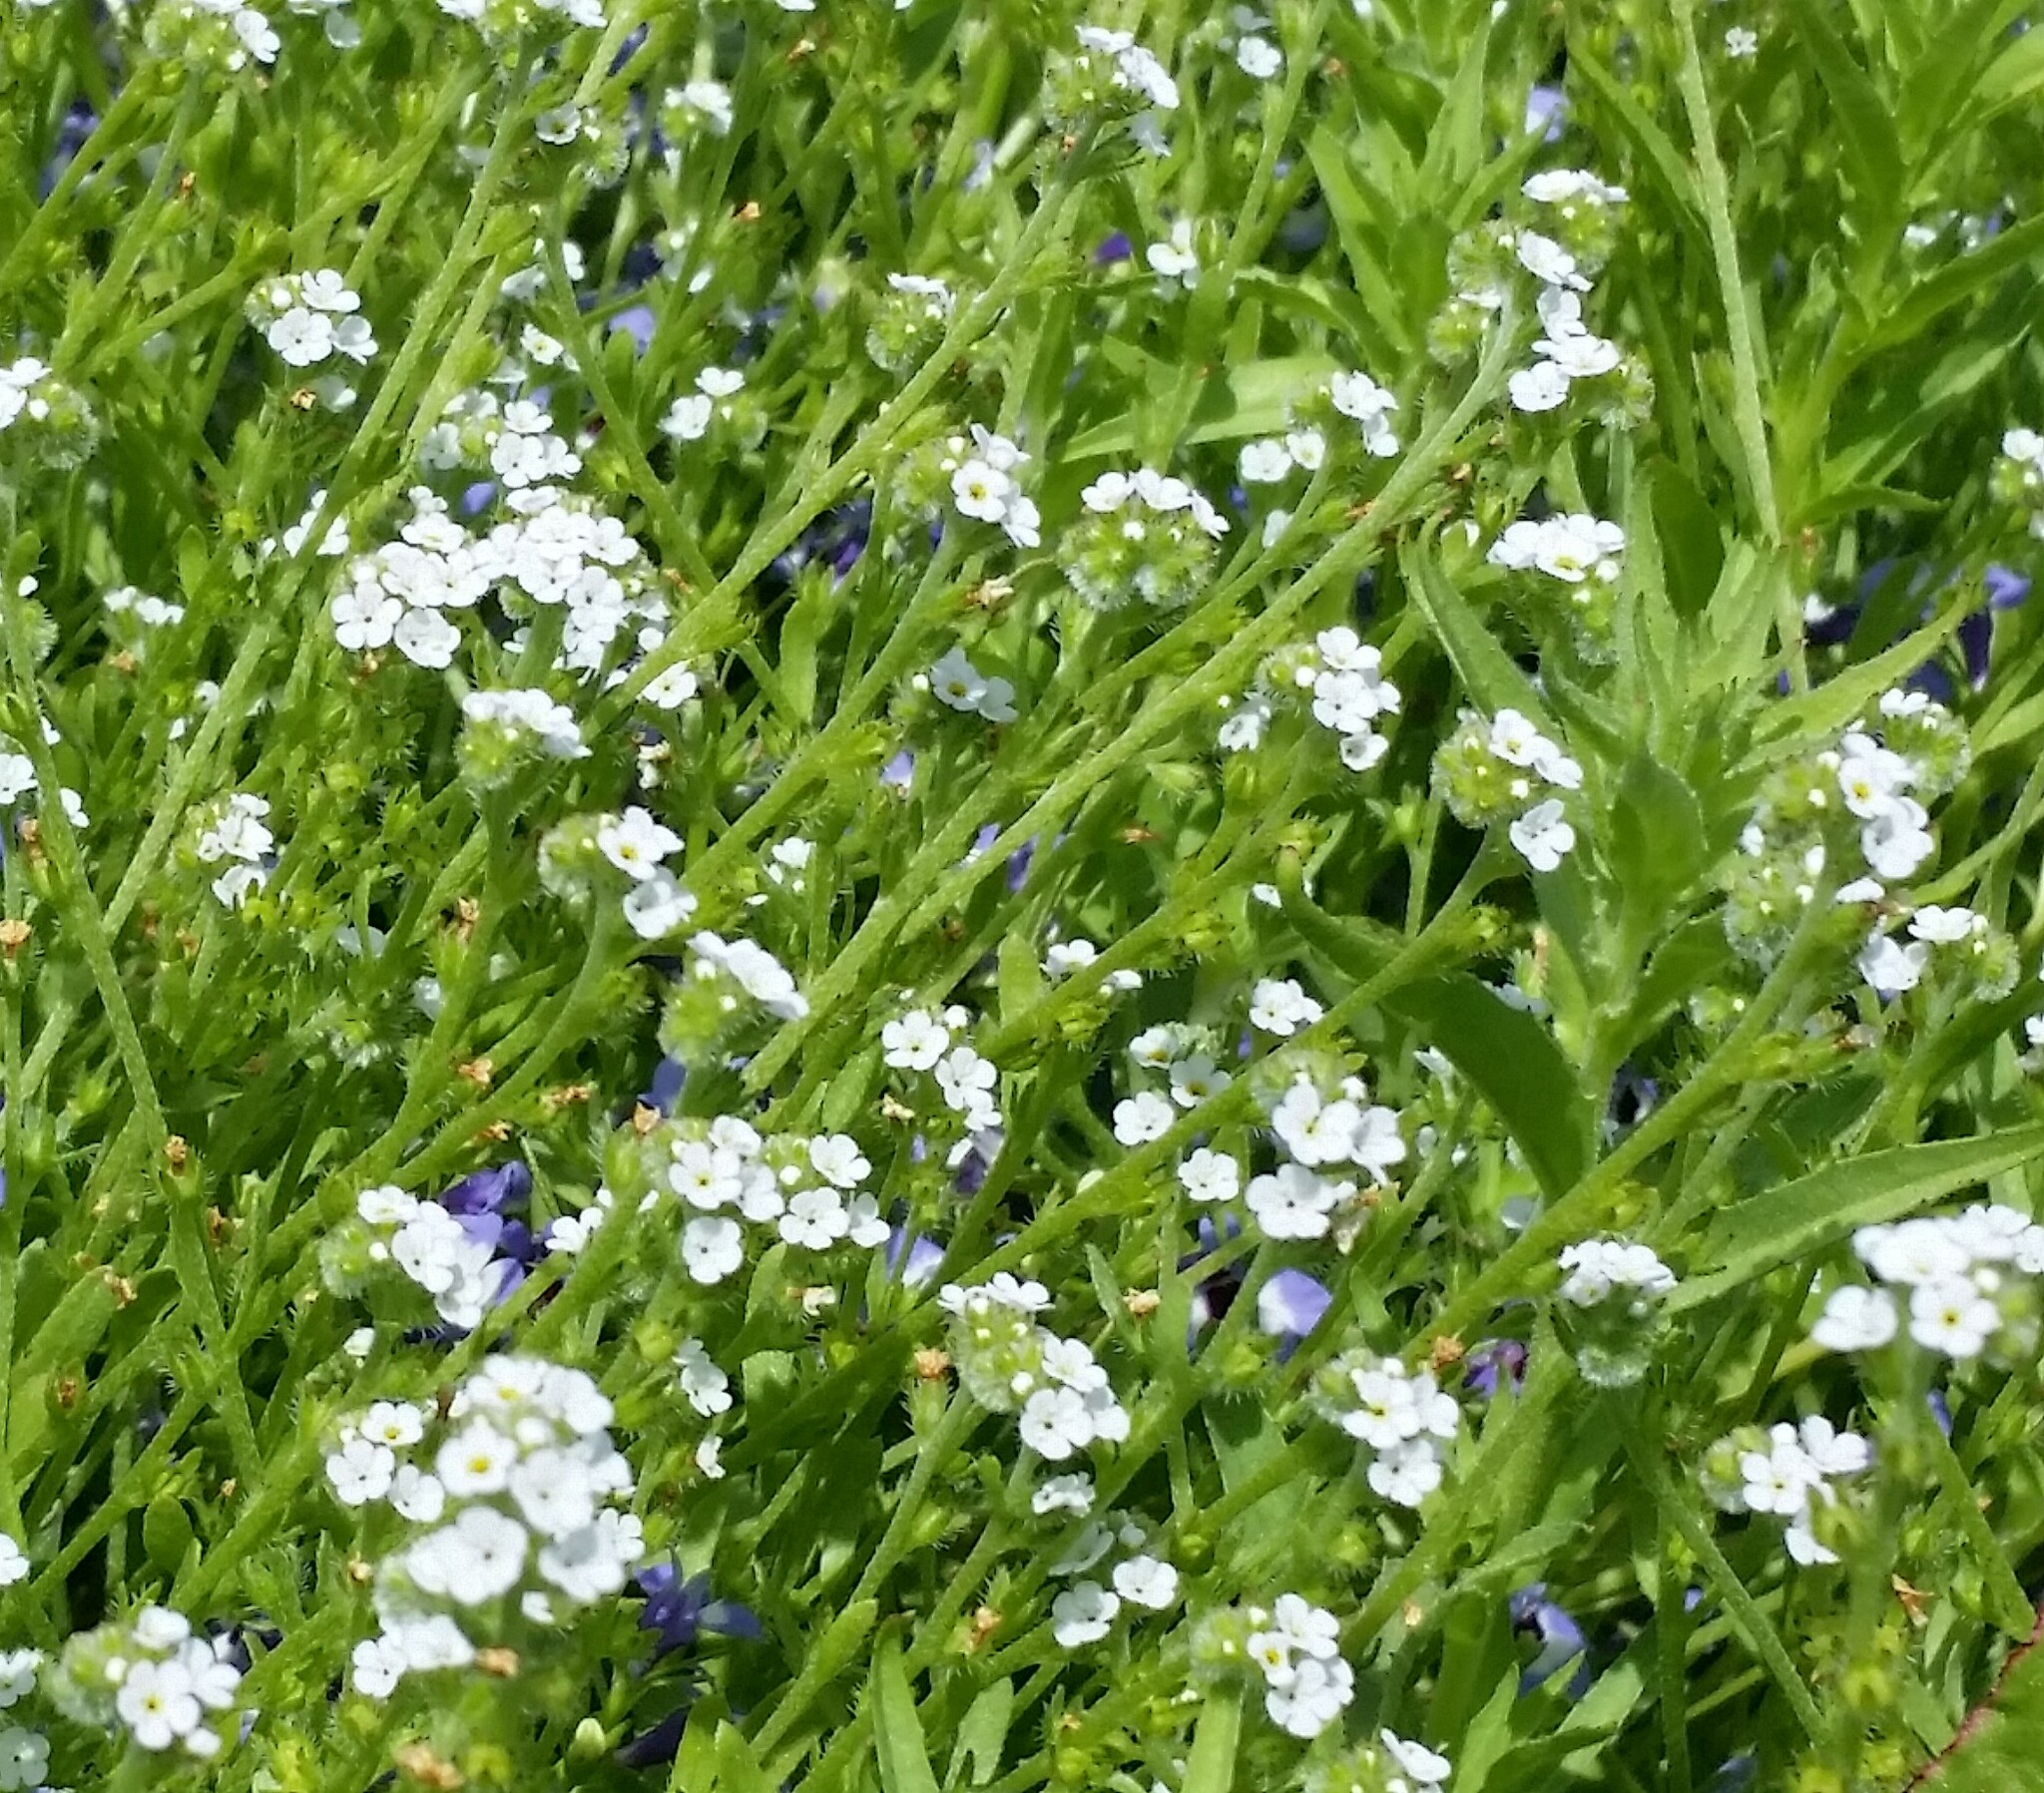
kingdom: Plantae
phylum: Tracheophyta
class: Magnoliopsida
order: Boraginales
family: Boraginaceae
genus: Plagiobothrys
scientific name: Plagiobothrys acanthocarpus
